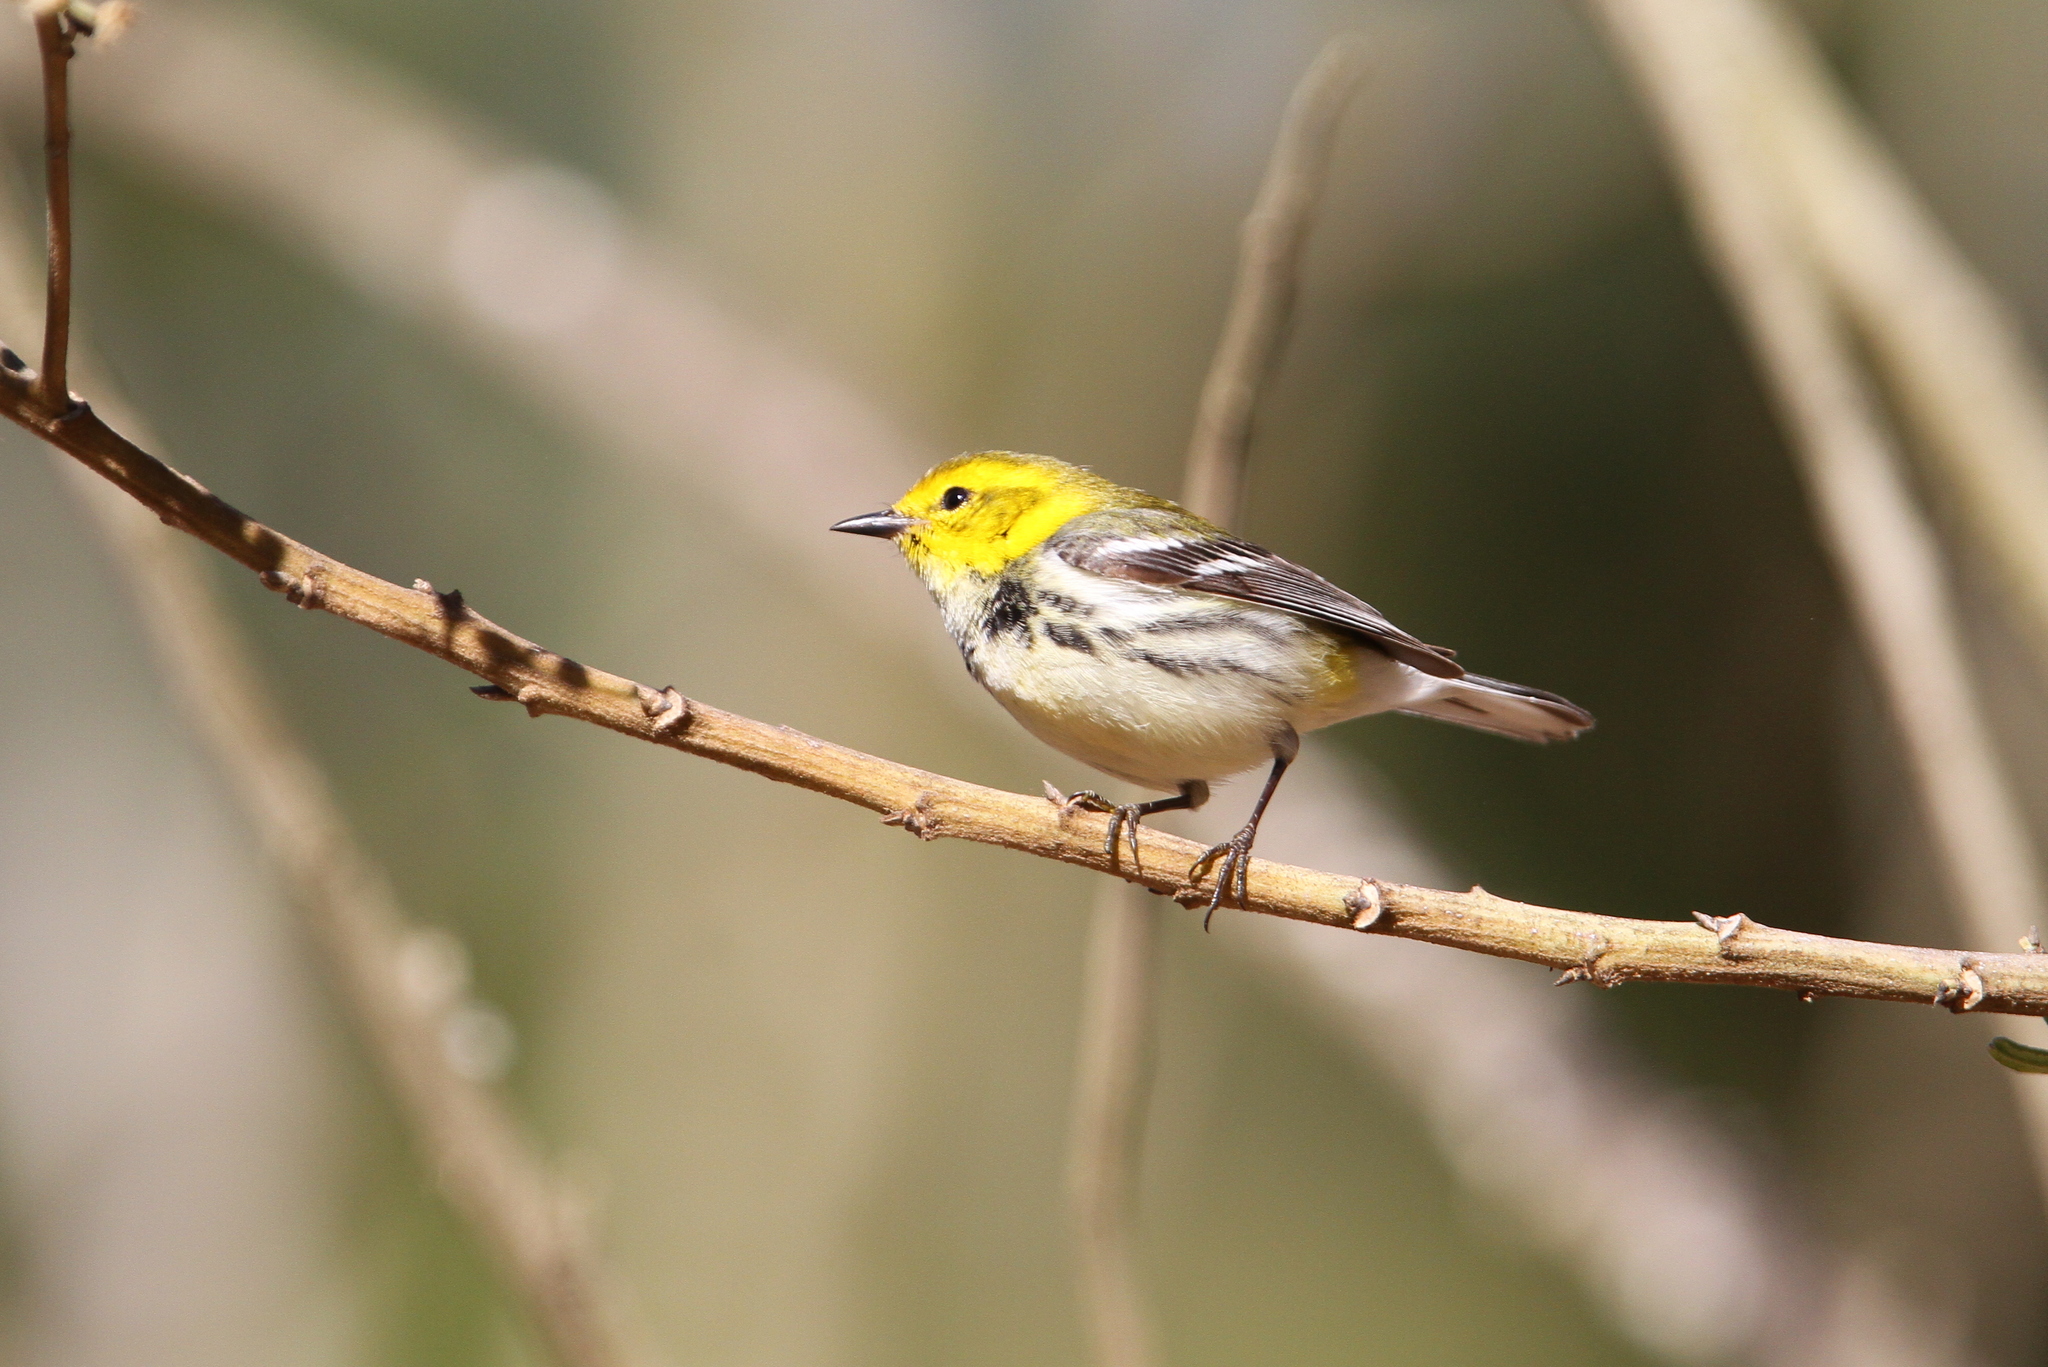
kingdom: Animalia
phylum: Chordata
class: Aves
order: Passeriformes
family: Parulidae
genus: Setophaga
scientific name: Setophaga virens
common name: Black-throated green warbler
